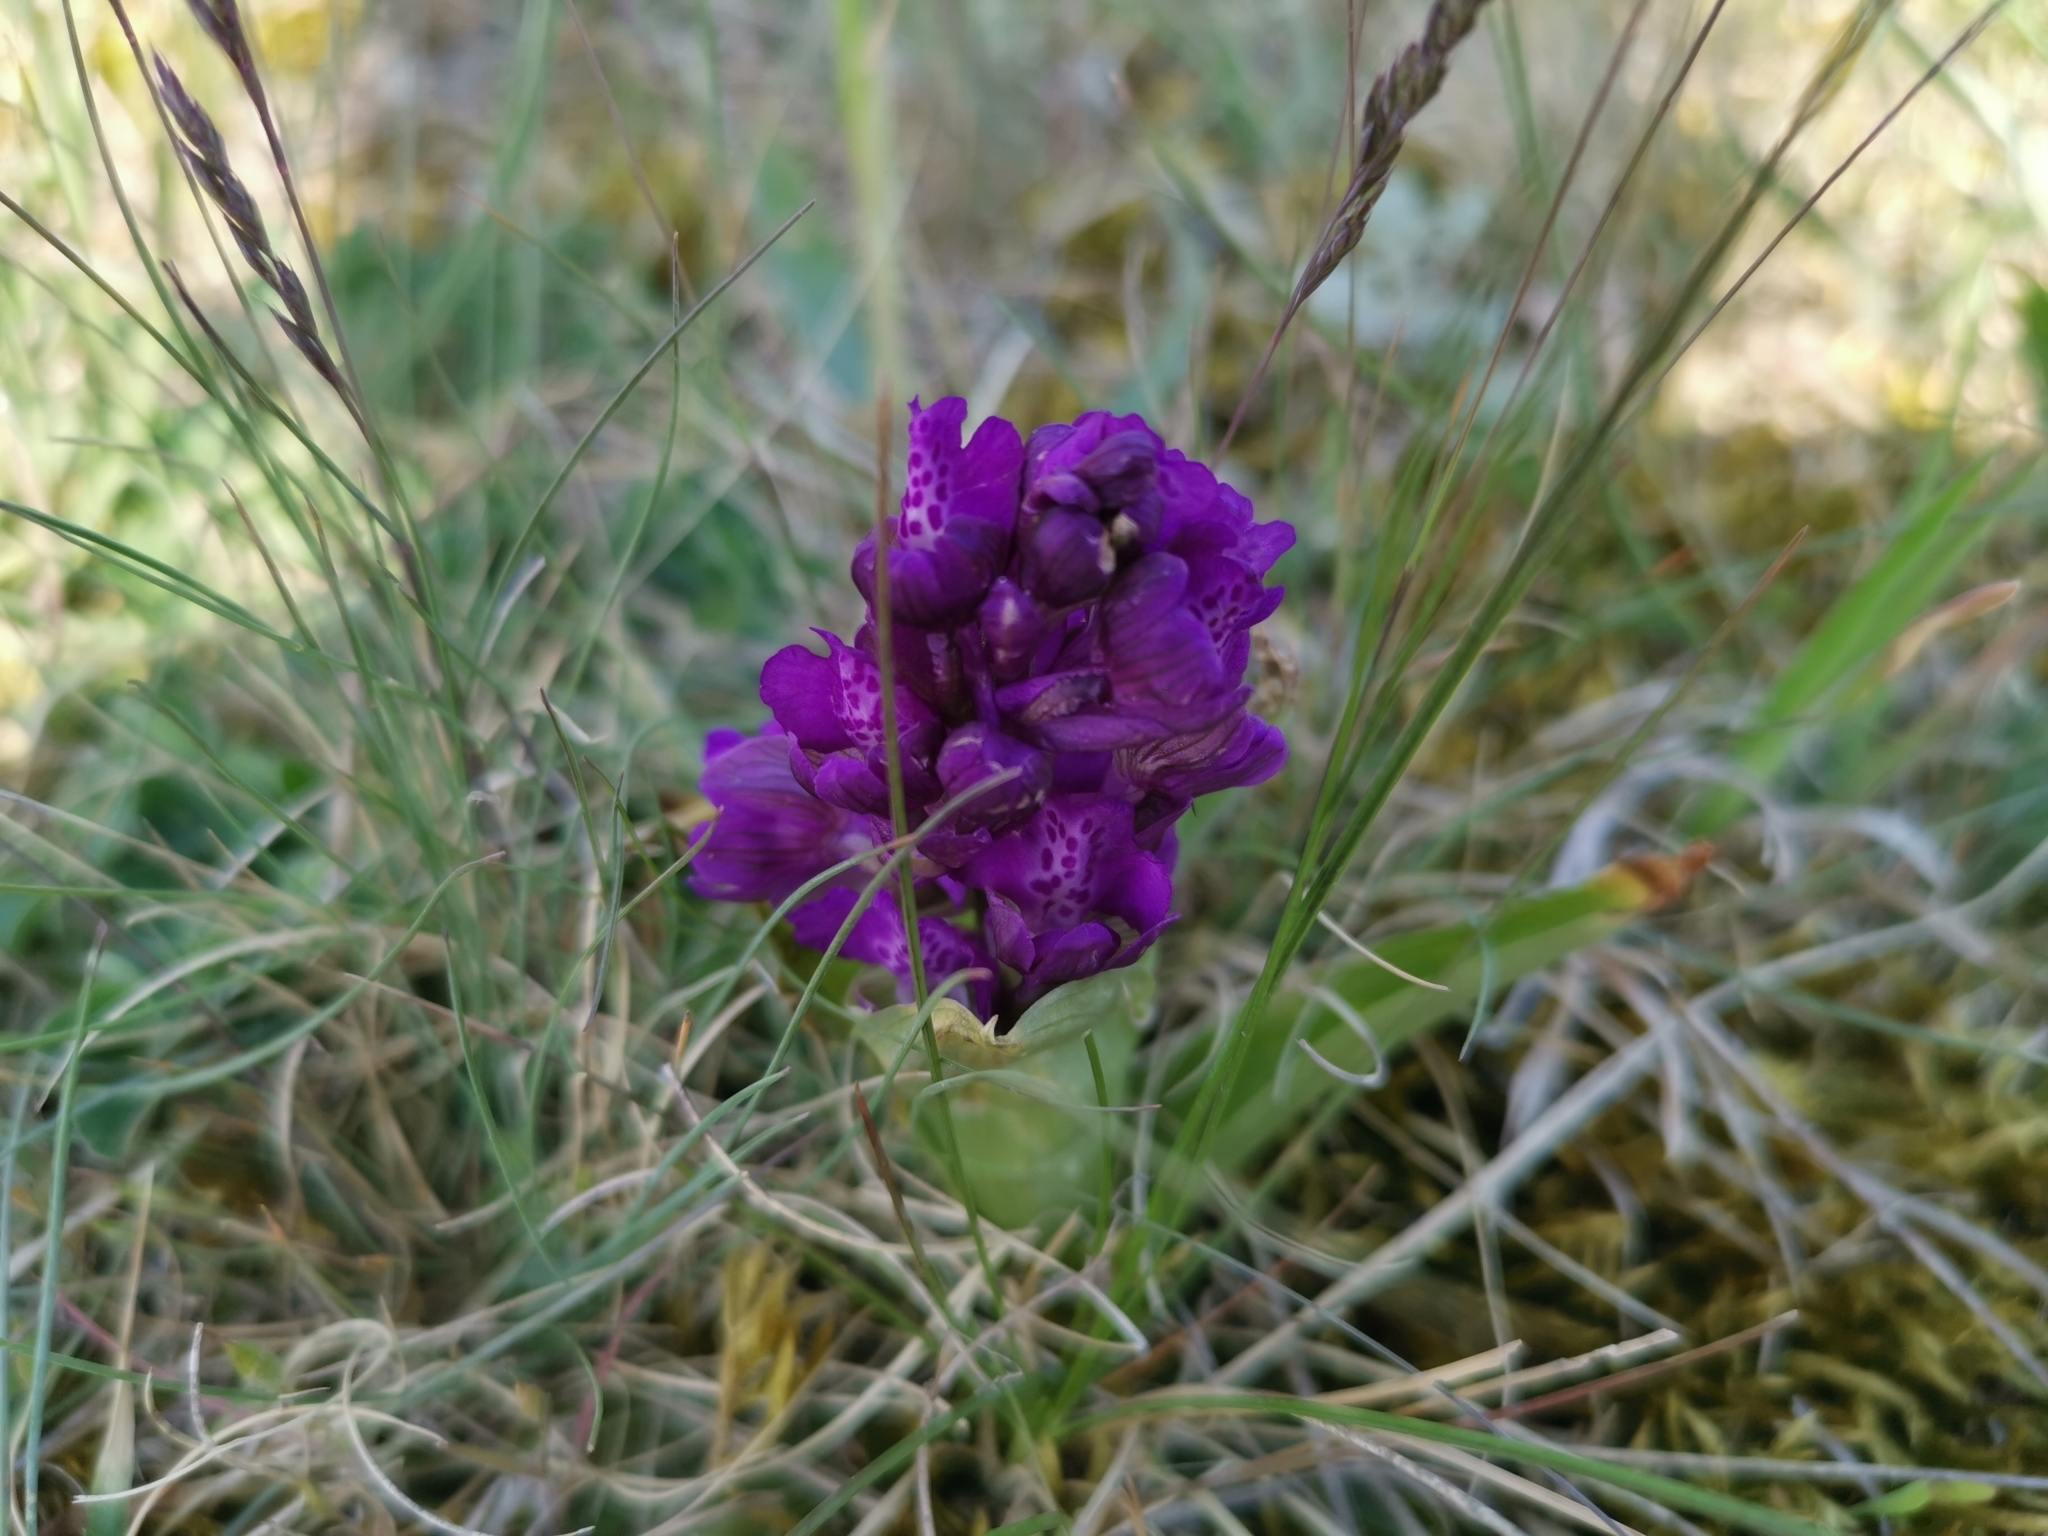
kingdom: Plantae
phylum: Tracheophyta
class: Liliopsida
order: Asparagales
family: Orchidaceae
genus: Anacamptis
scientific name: Anacamptis morio
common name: Green-winged orchid
